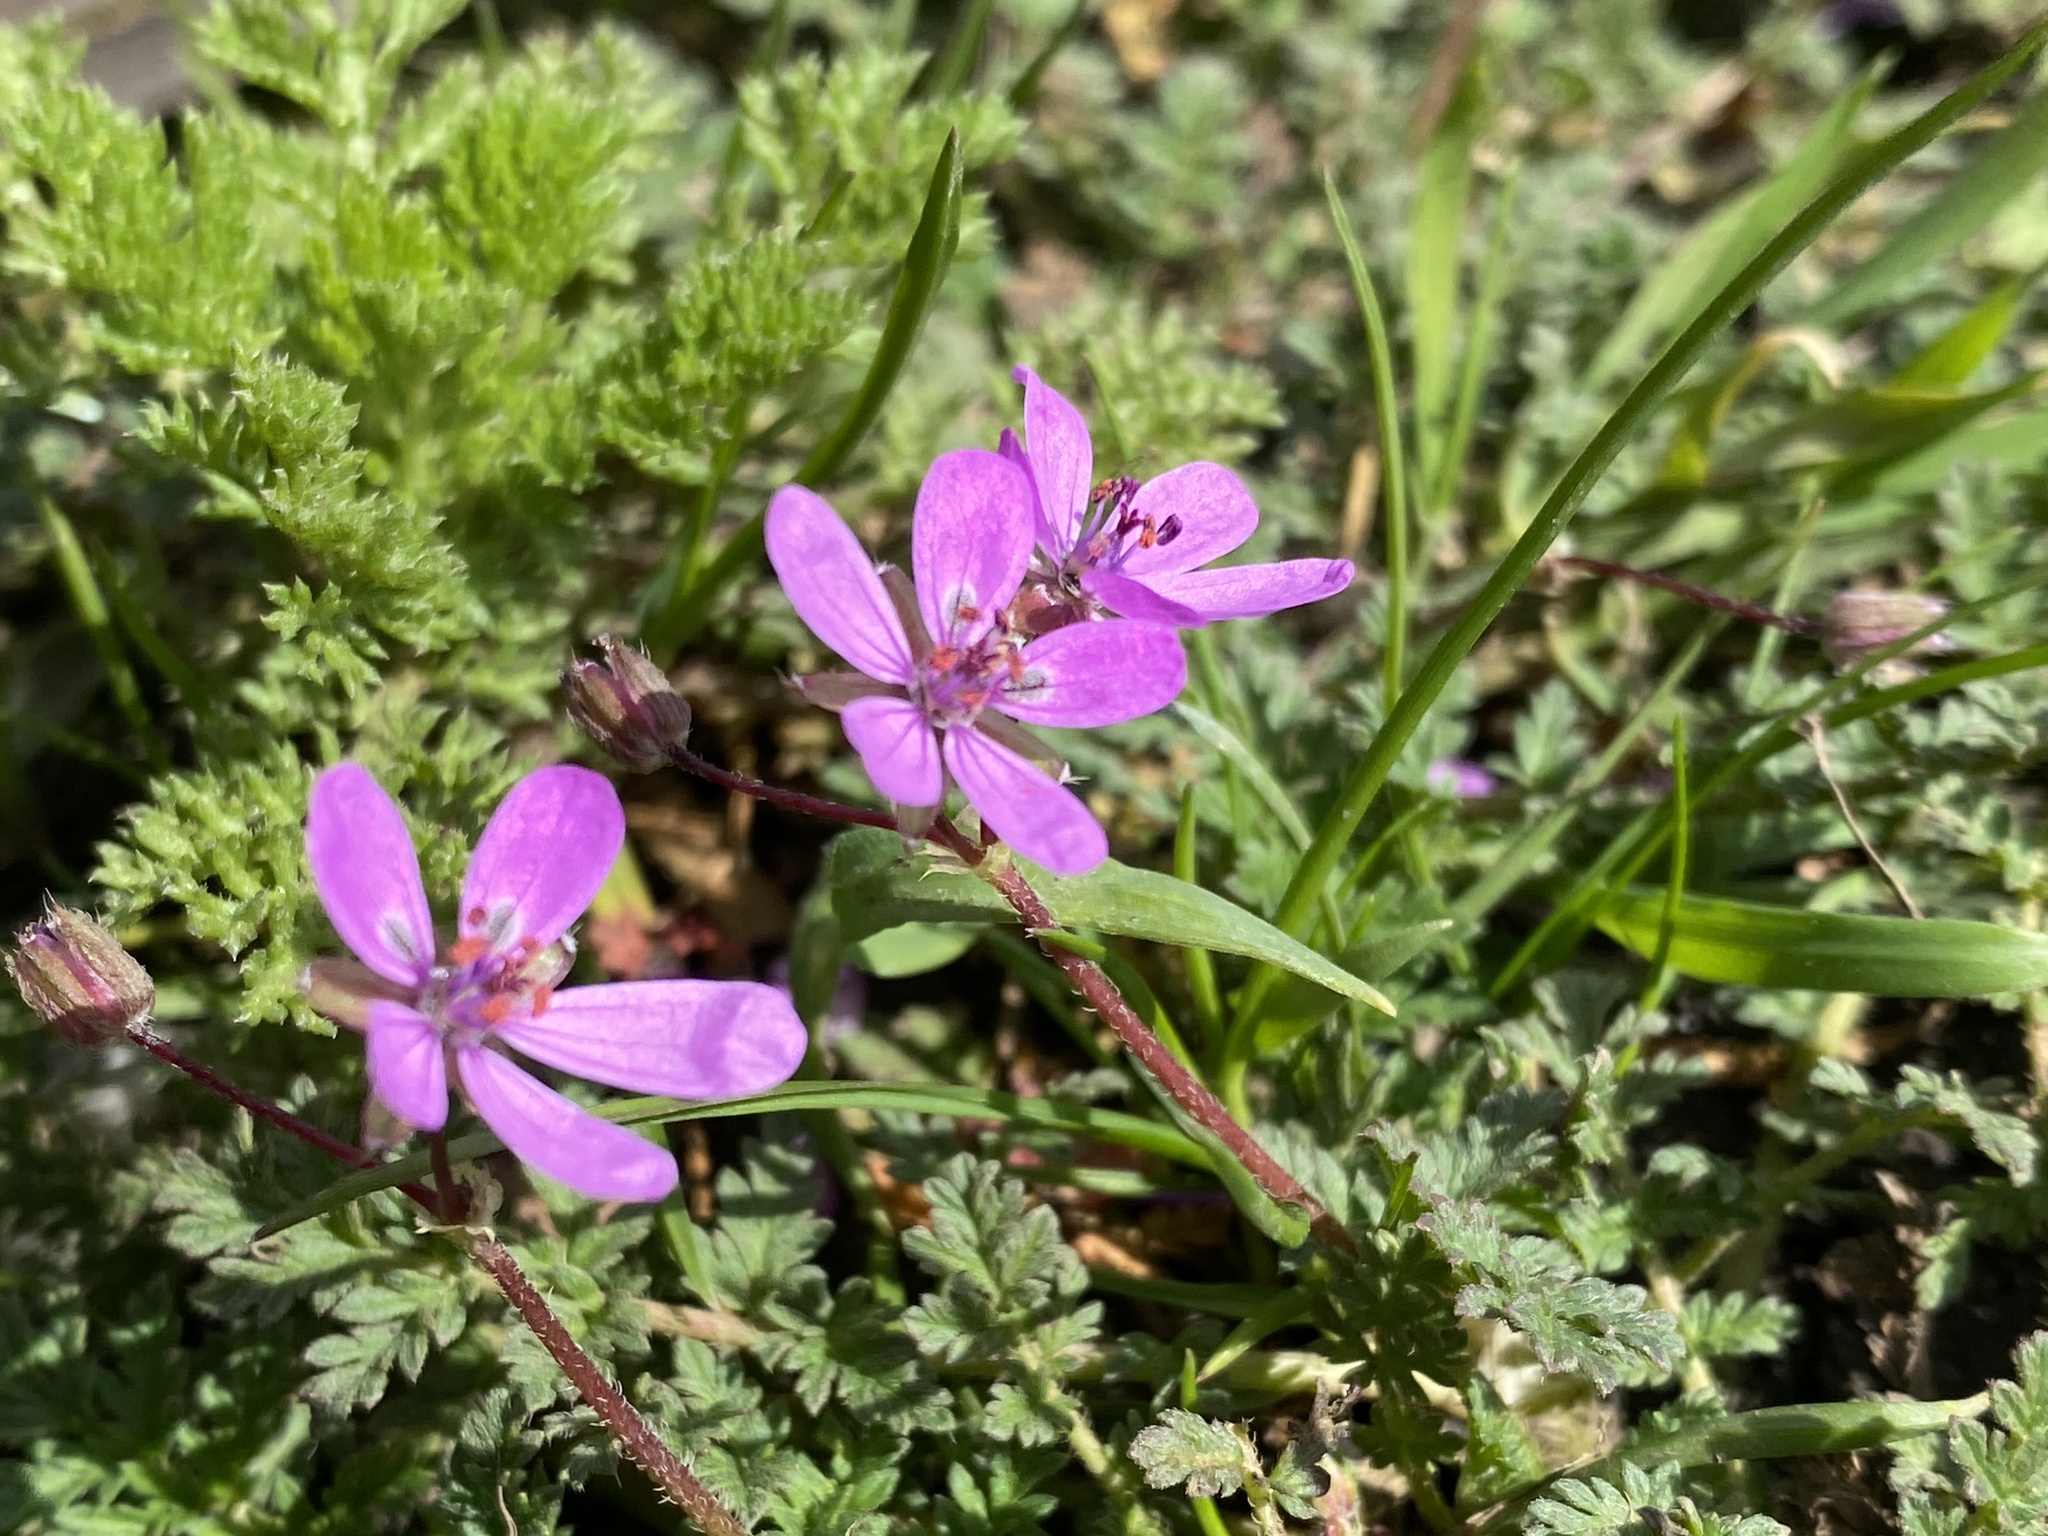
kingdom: Plantae
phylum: Tracheophyta
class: Magnoliopsida
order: Geraniales
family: Geraniaceae
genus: Erodium
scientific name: Erodium cicutarium
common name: Common stork's-bill
